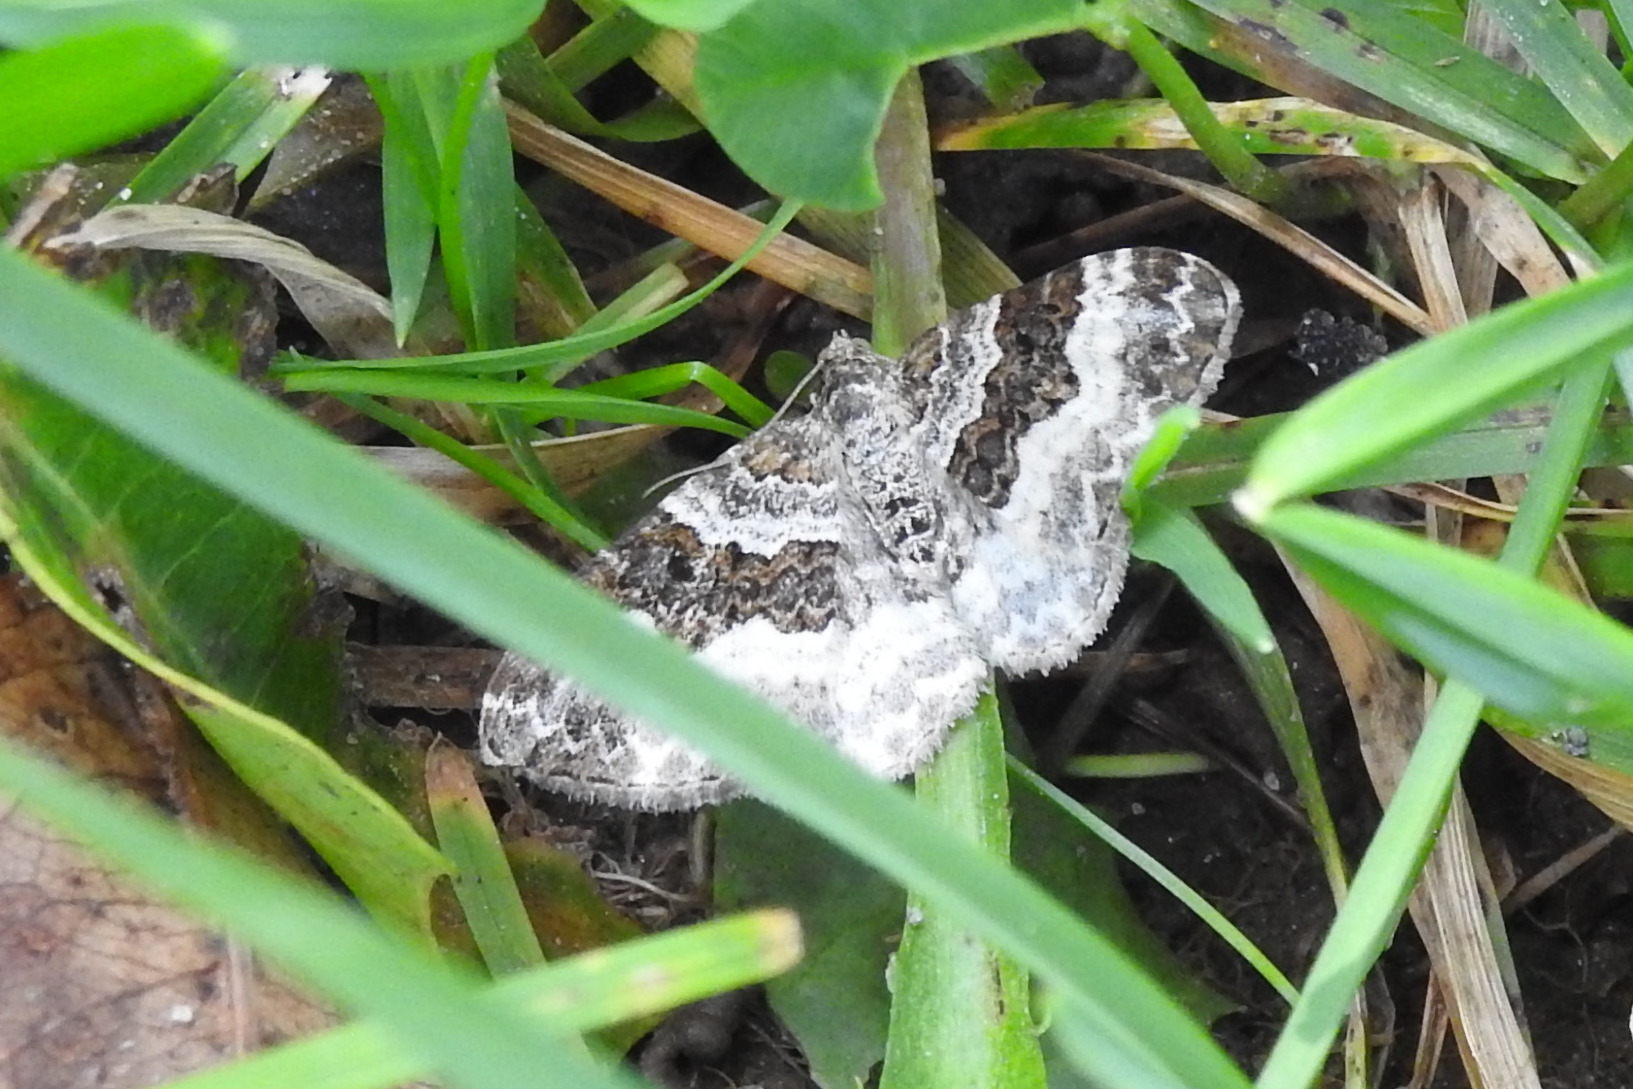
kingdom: Animalia
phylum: Arthropoda
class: Insecta
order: Lepidoptera
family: Geometridae
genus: Epirrhoe
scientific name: Epirrhoe alternata
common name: Common carpet
